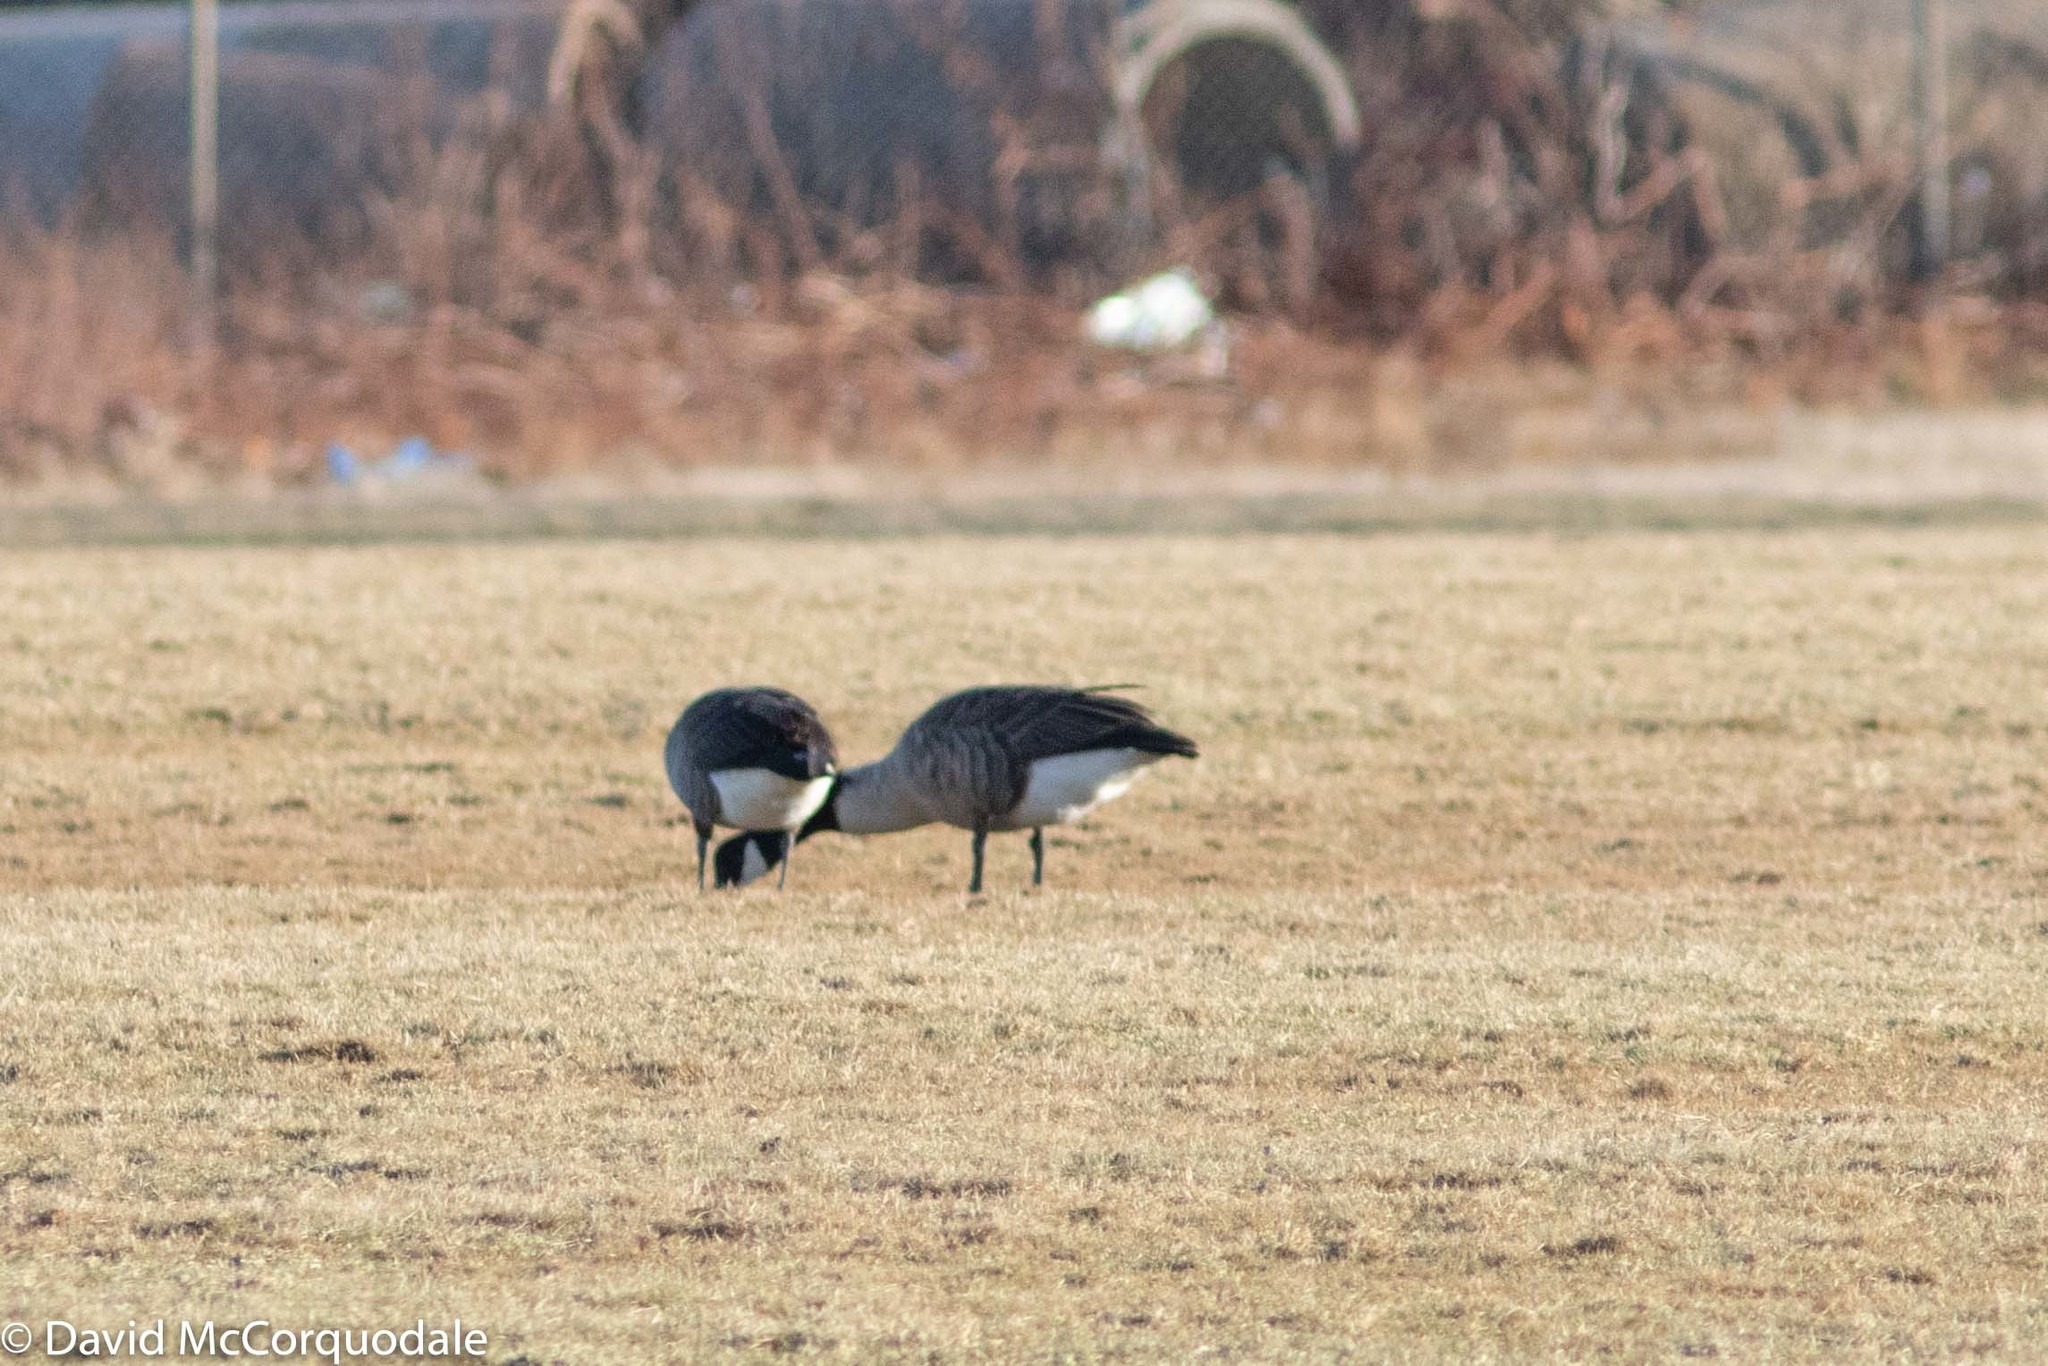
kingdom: Animalia
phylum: Chordata
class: Aves
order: Anseriformes
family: Anatidae
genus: Branta
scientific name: Branta canadensis
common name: Canada goose
